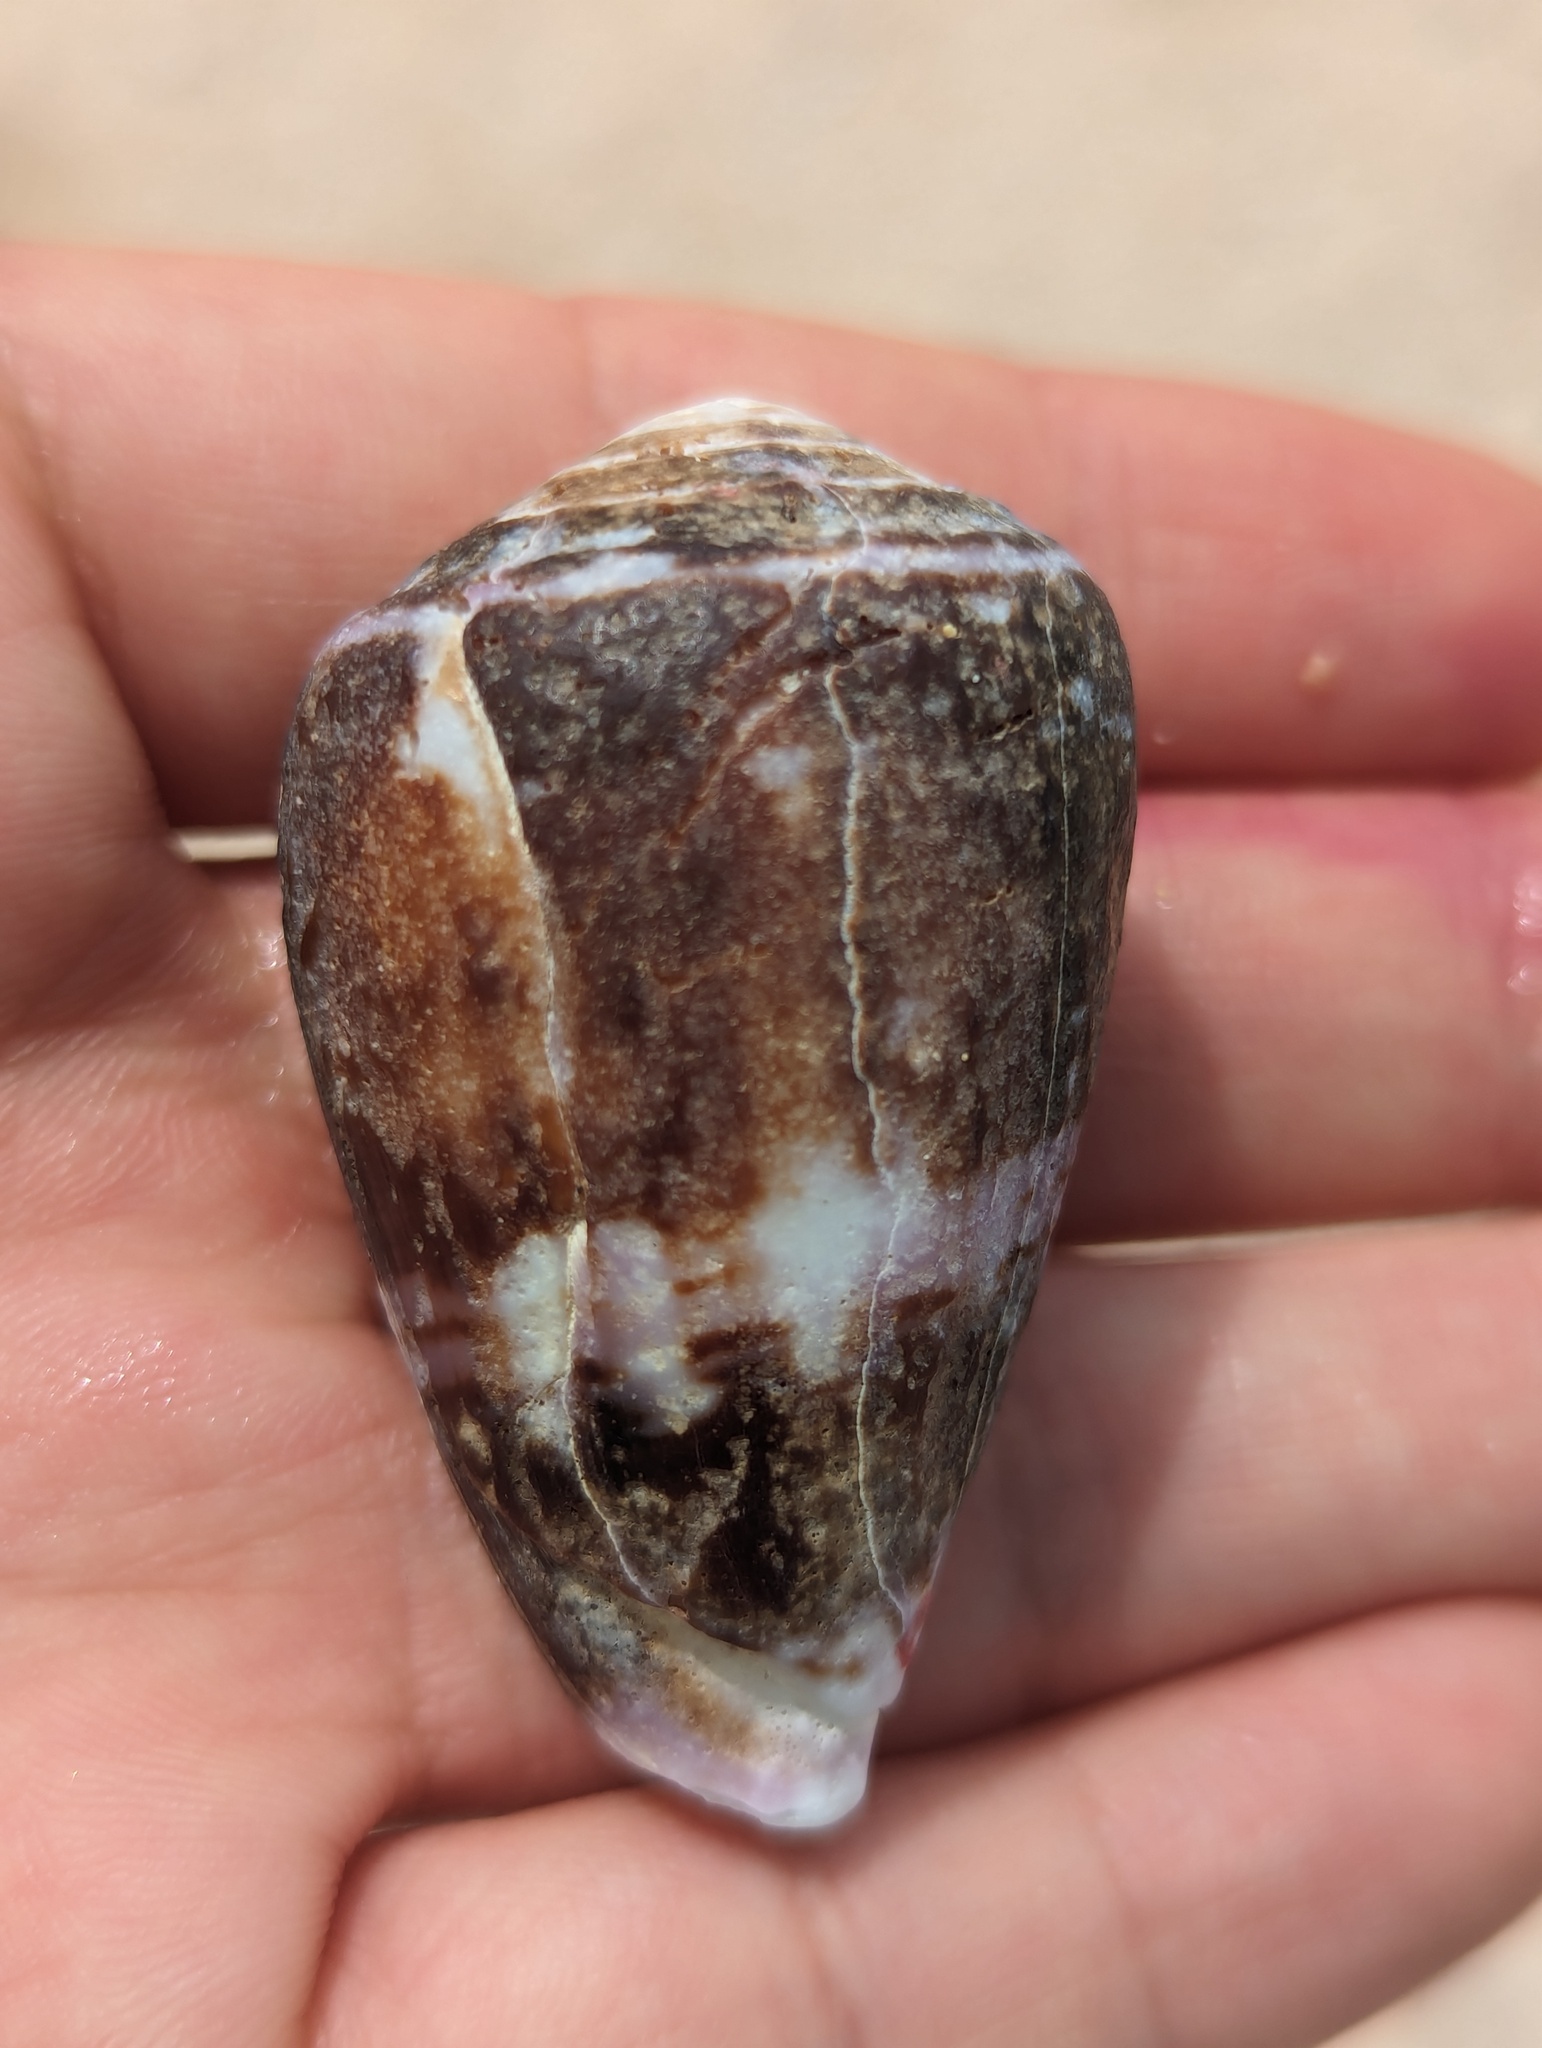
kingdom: Animalia
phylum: Mollusca
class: Gastropoda
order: Neogastropoda
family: Conidae
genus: Conus
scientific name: Conus purpurascens
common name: Purple cone
